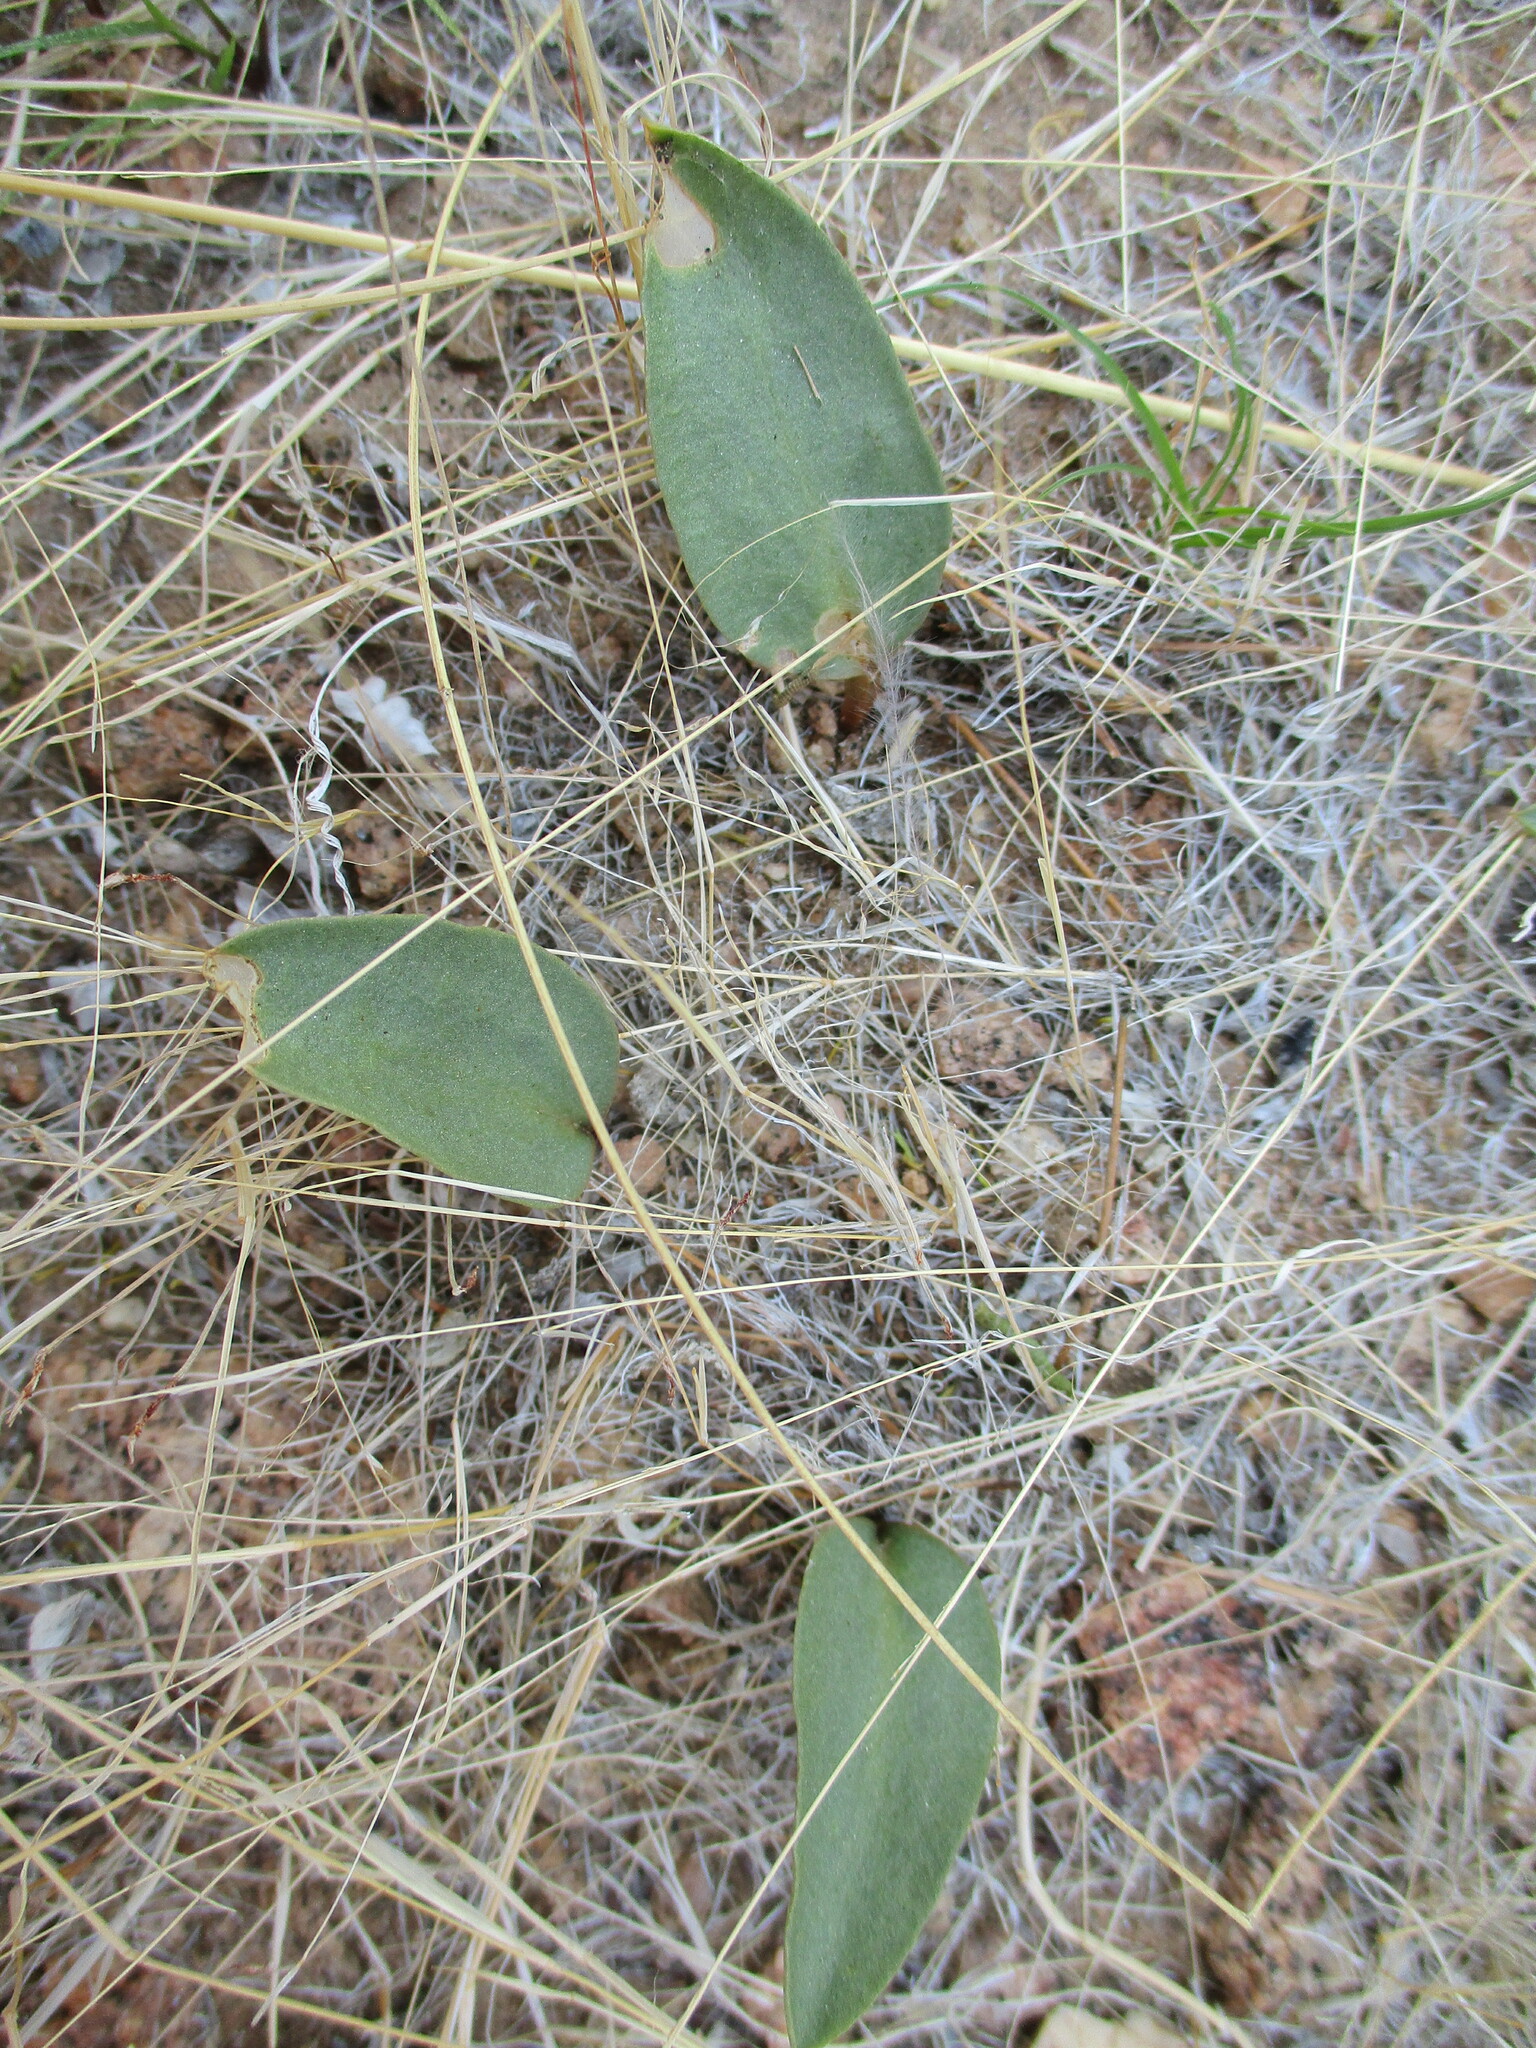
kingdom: Plantae
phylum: Tracheophyta
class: Polypodiopsida
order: Ophioglossales
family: Ophioglossaceae
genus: Ophioglossum
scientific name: Ophioglossum polyphyllum
